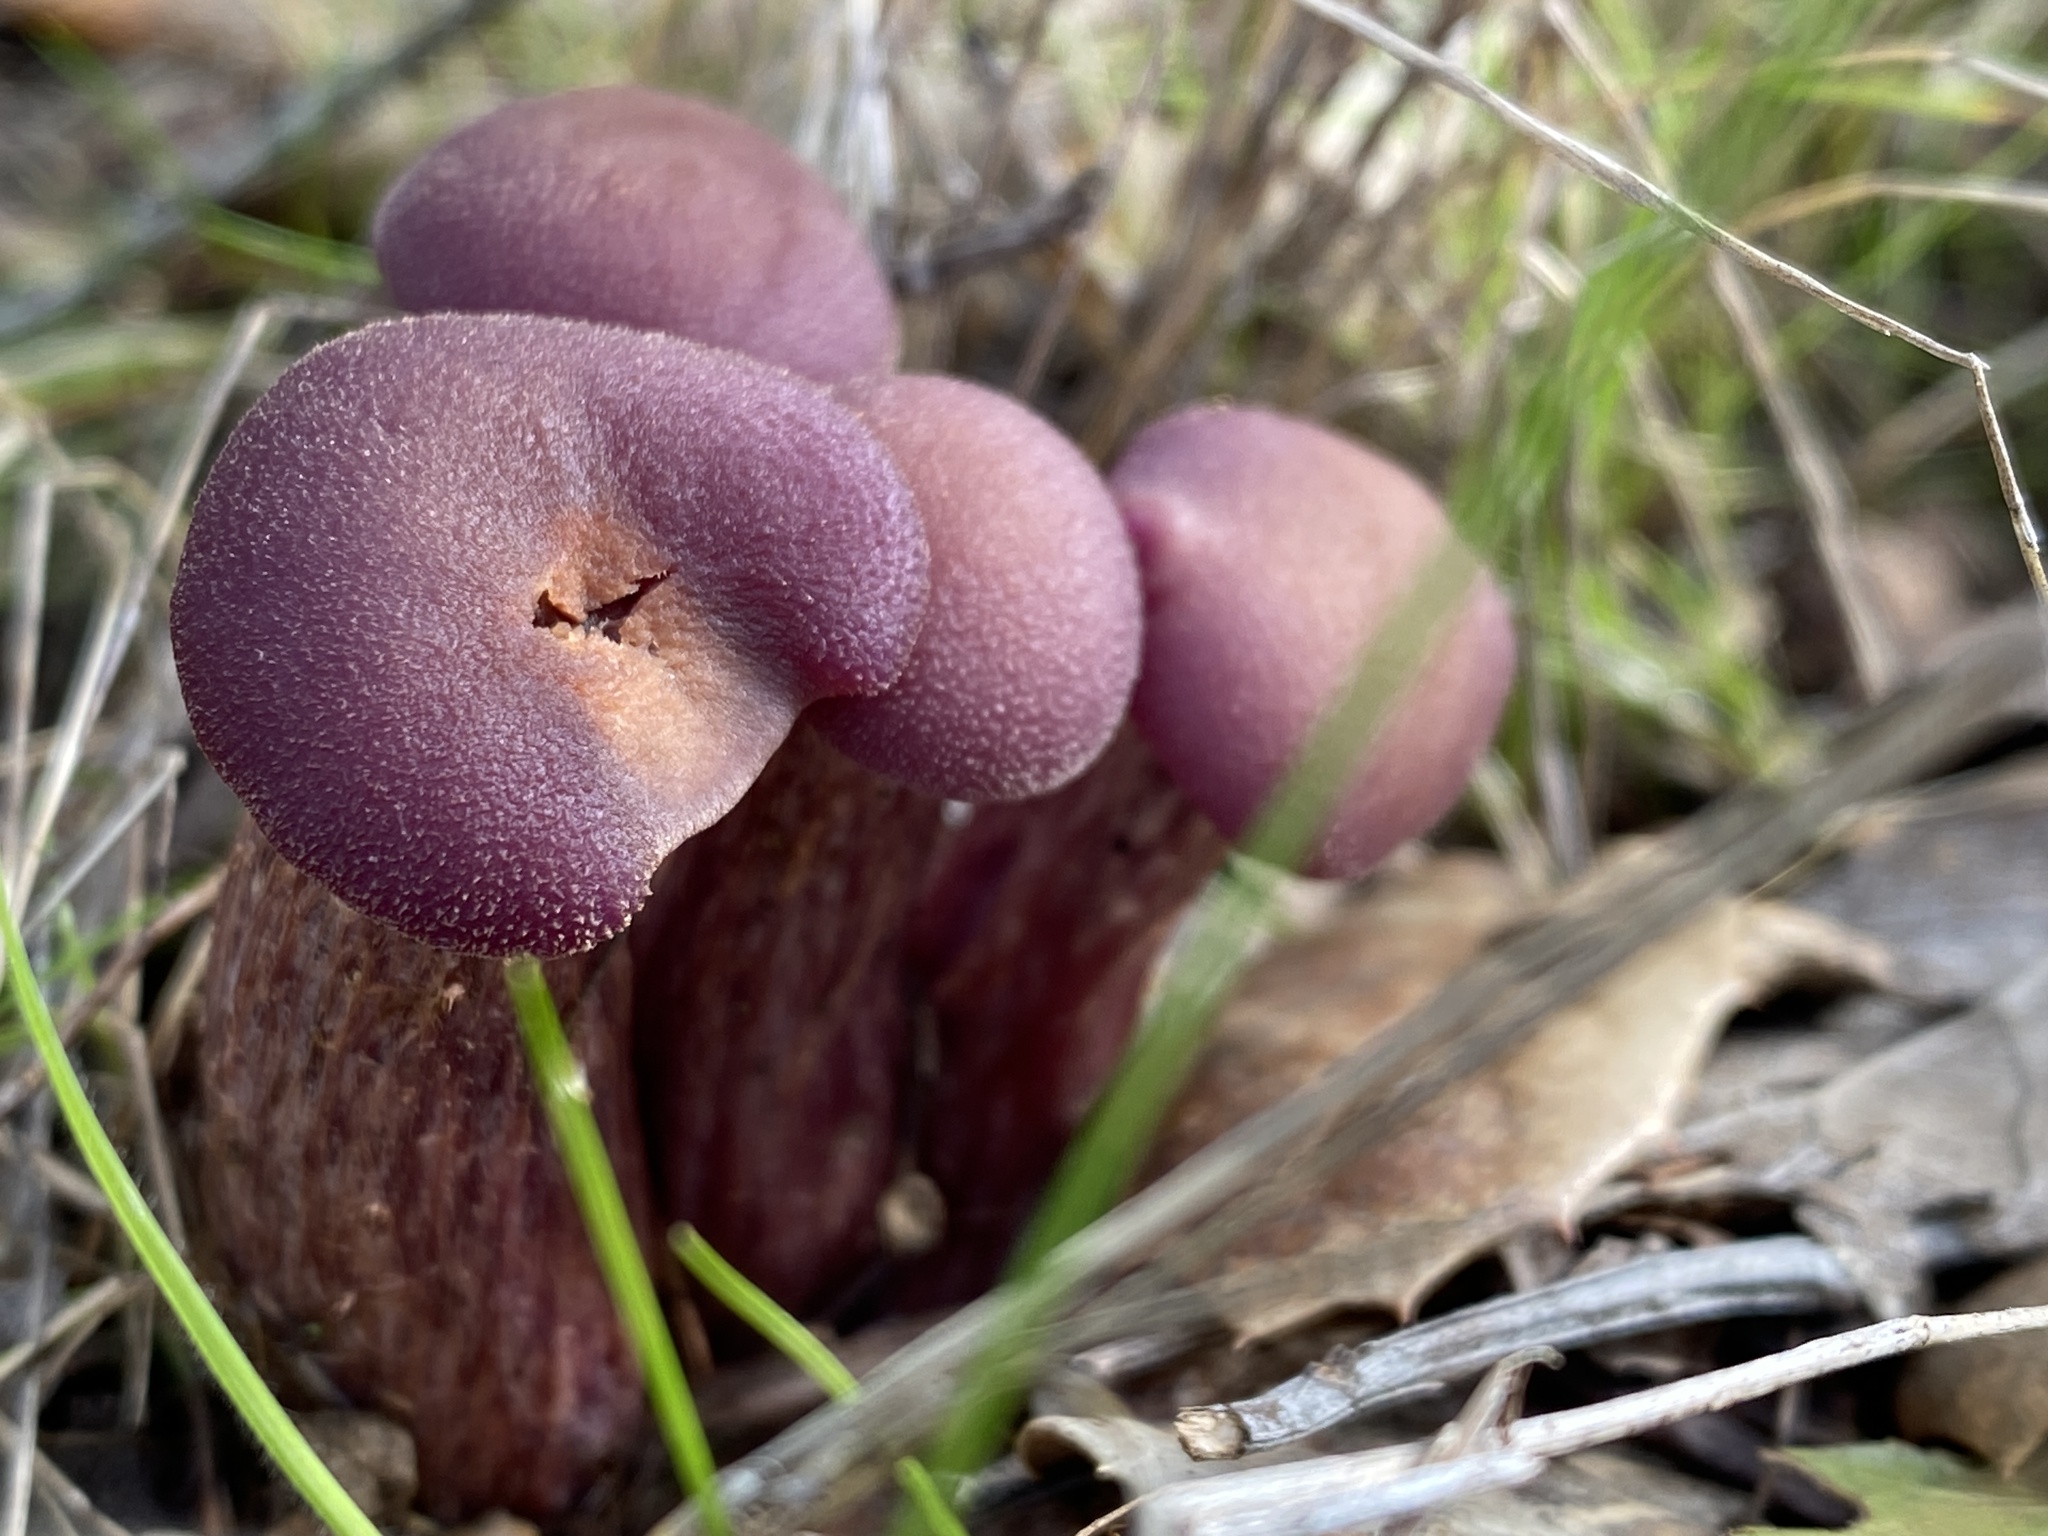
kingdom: Fungi
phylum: Basidiomycota
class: Agaricomycetes
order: Agaricales
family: Hydnangiaceae
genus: Laccaria
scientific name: Laccaria amethysteo-occidentalis
